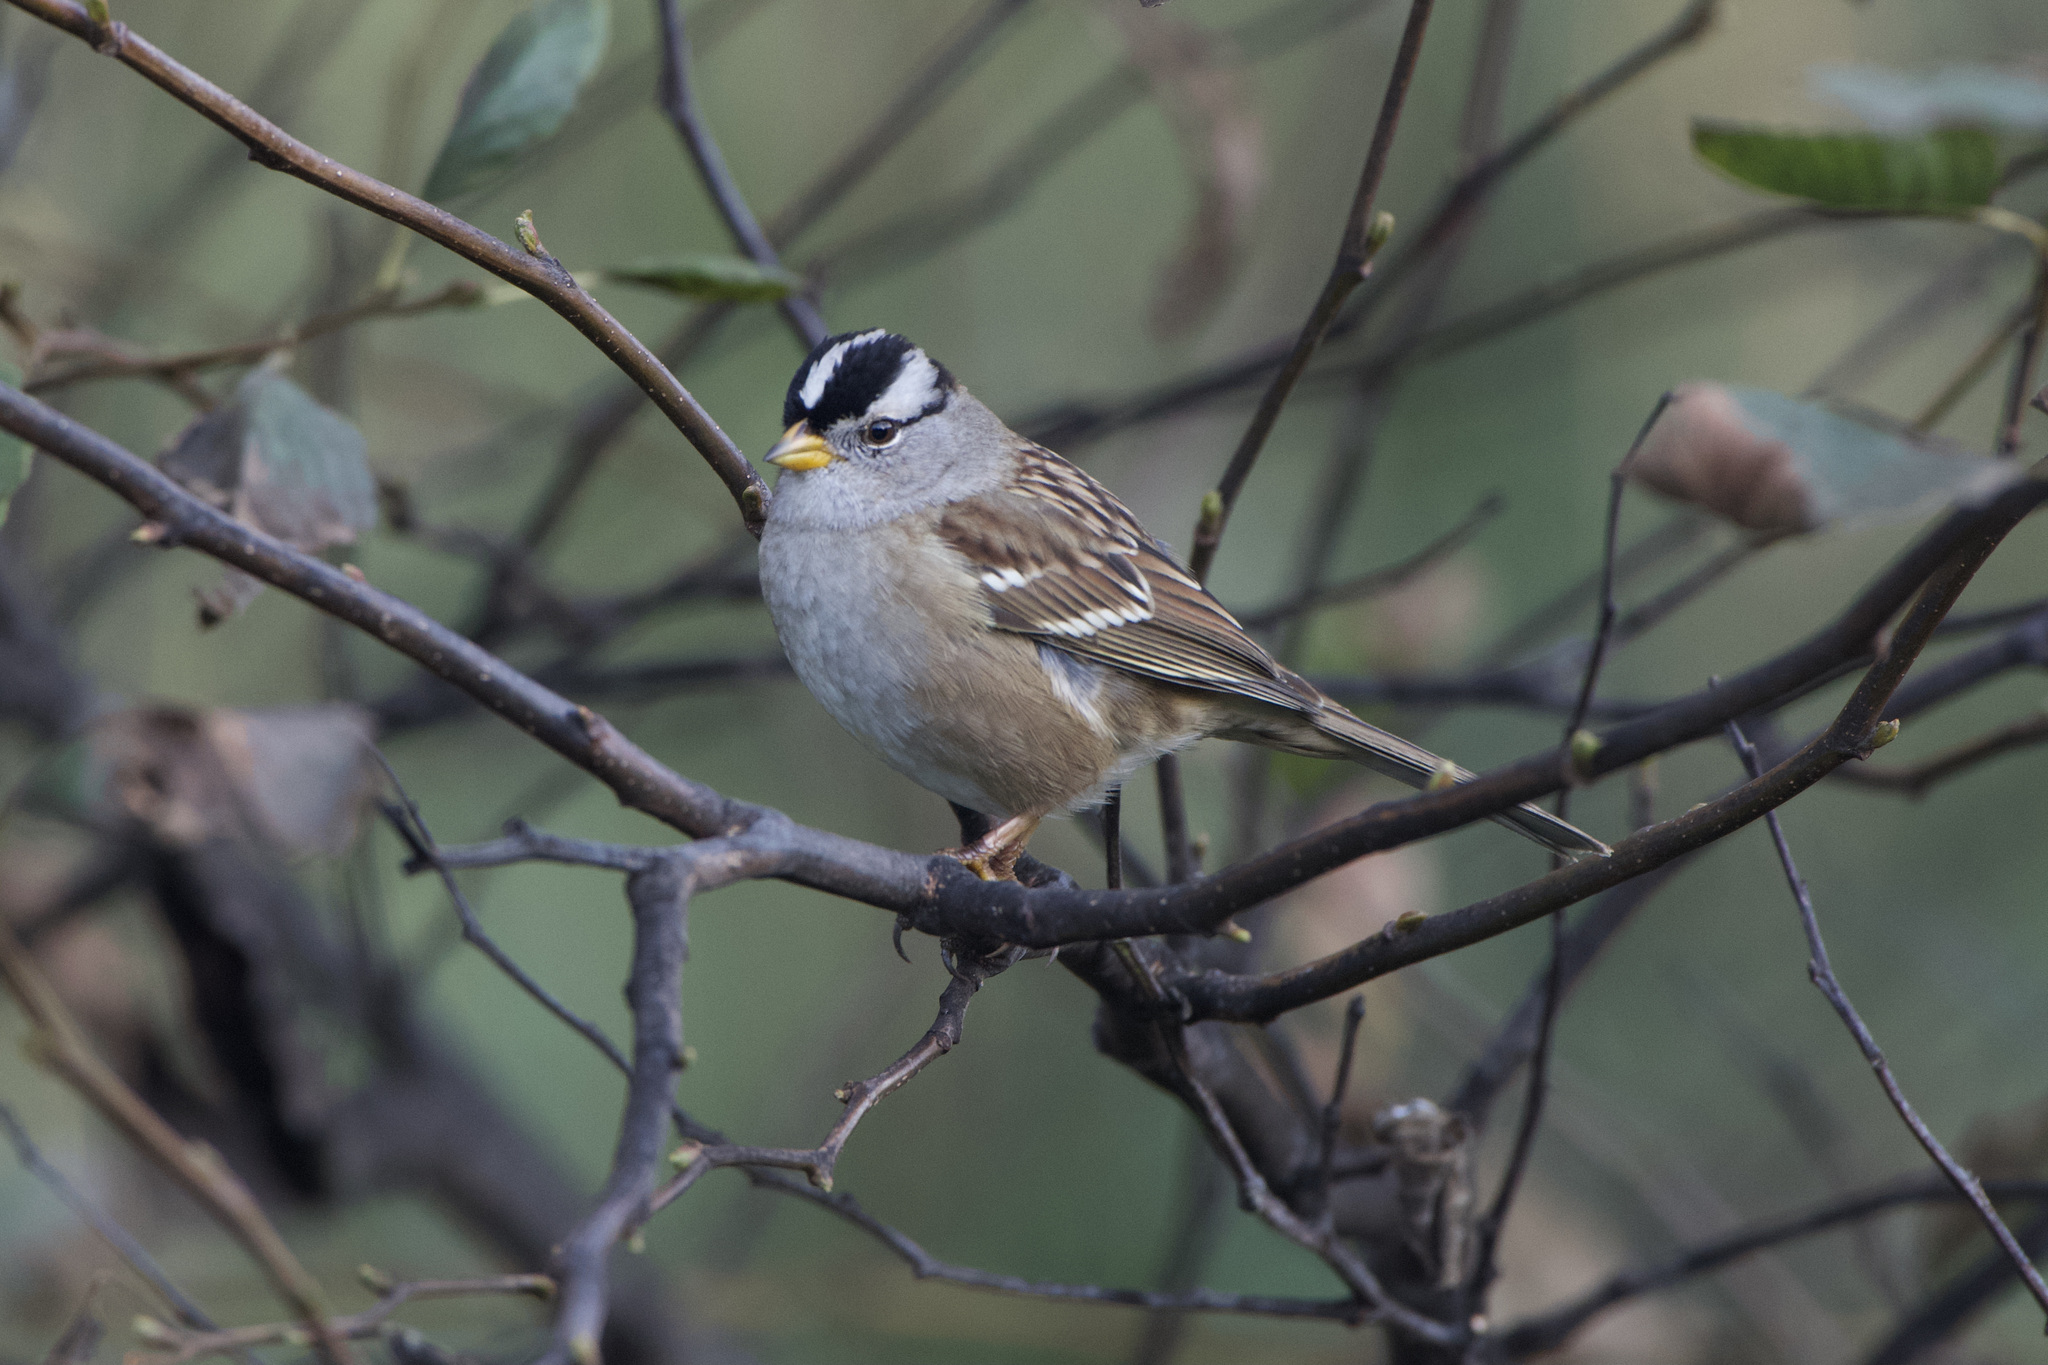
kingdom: Animalia
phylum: Chordata
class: Aves
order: Passeriformes
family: Passerellidae
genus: Zonotrichia
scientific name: Zonotrichia leucophrys
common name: White-crowned sparrow
